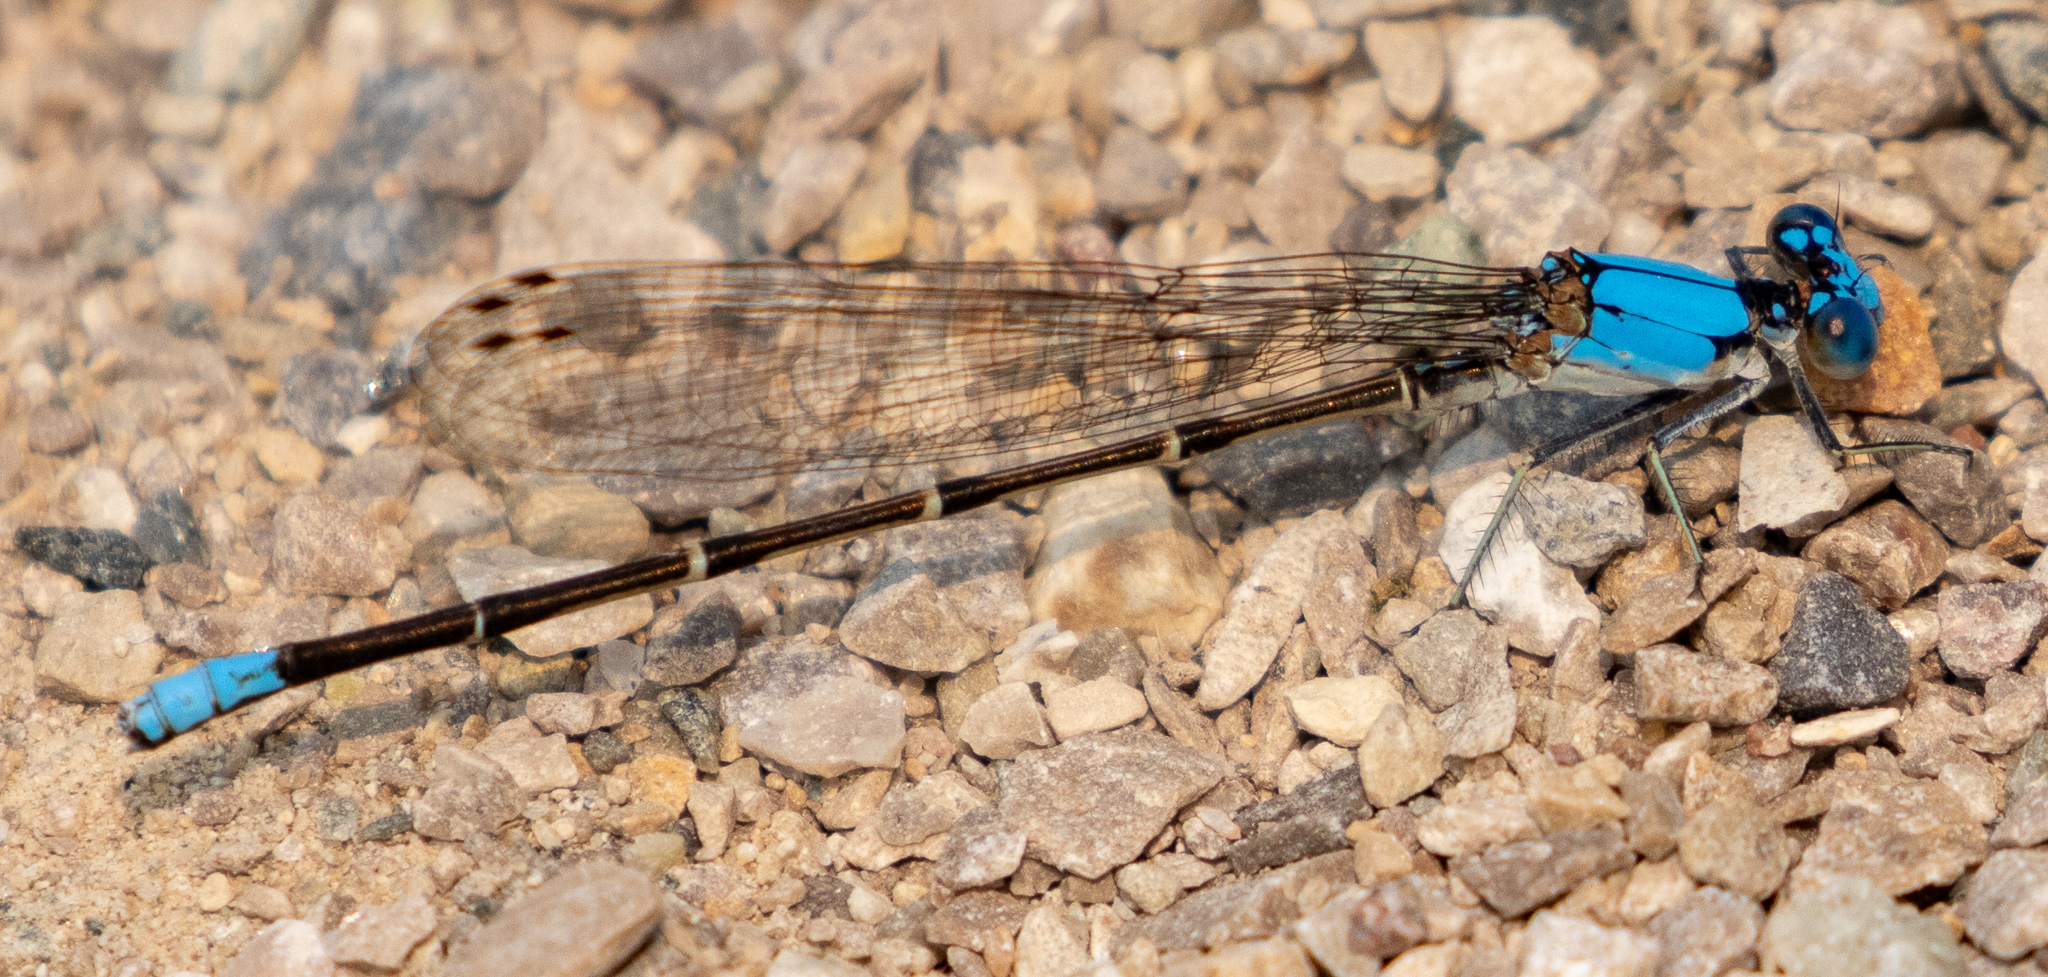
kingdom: Animalia
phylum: Arthropoda
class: Insecta
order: Odonata
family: Coenagrionidae
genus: Argia
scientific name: Argia apicalis
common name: Blue-fronted dancer
